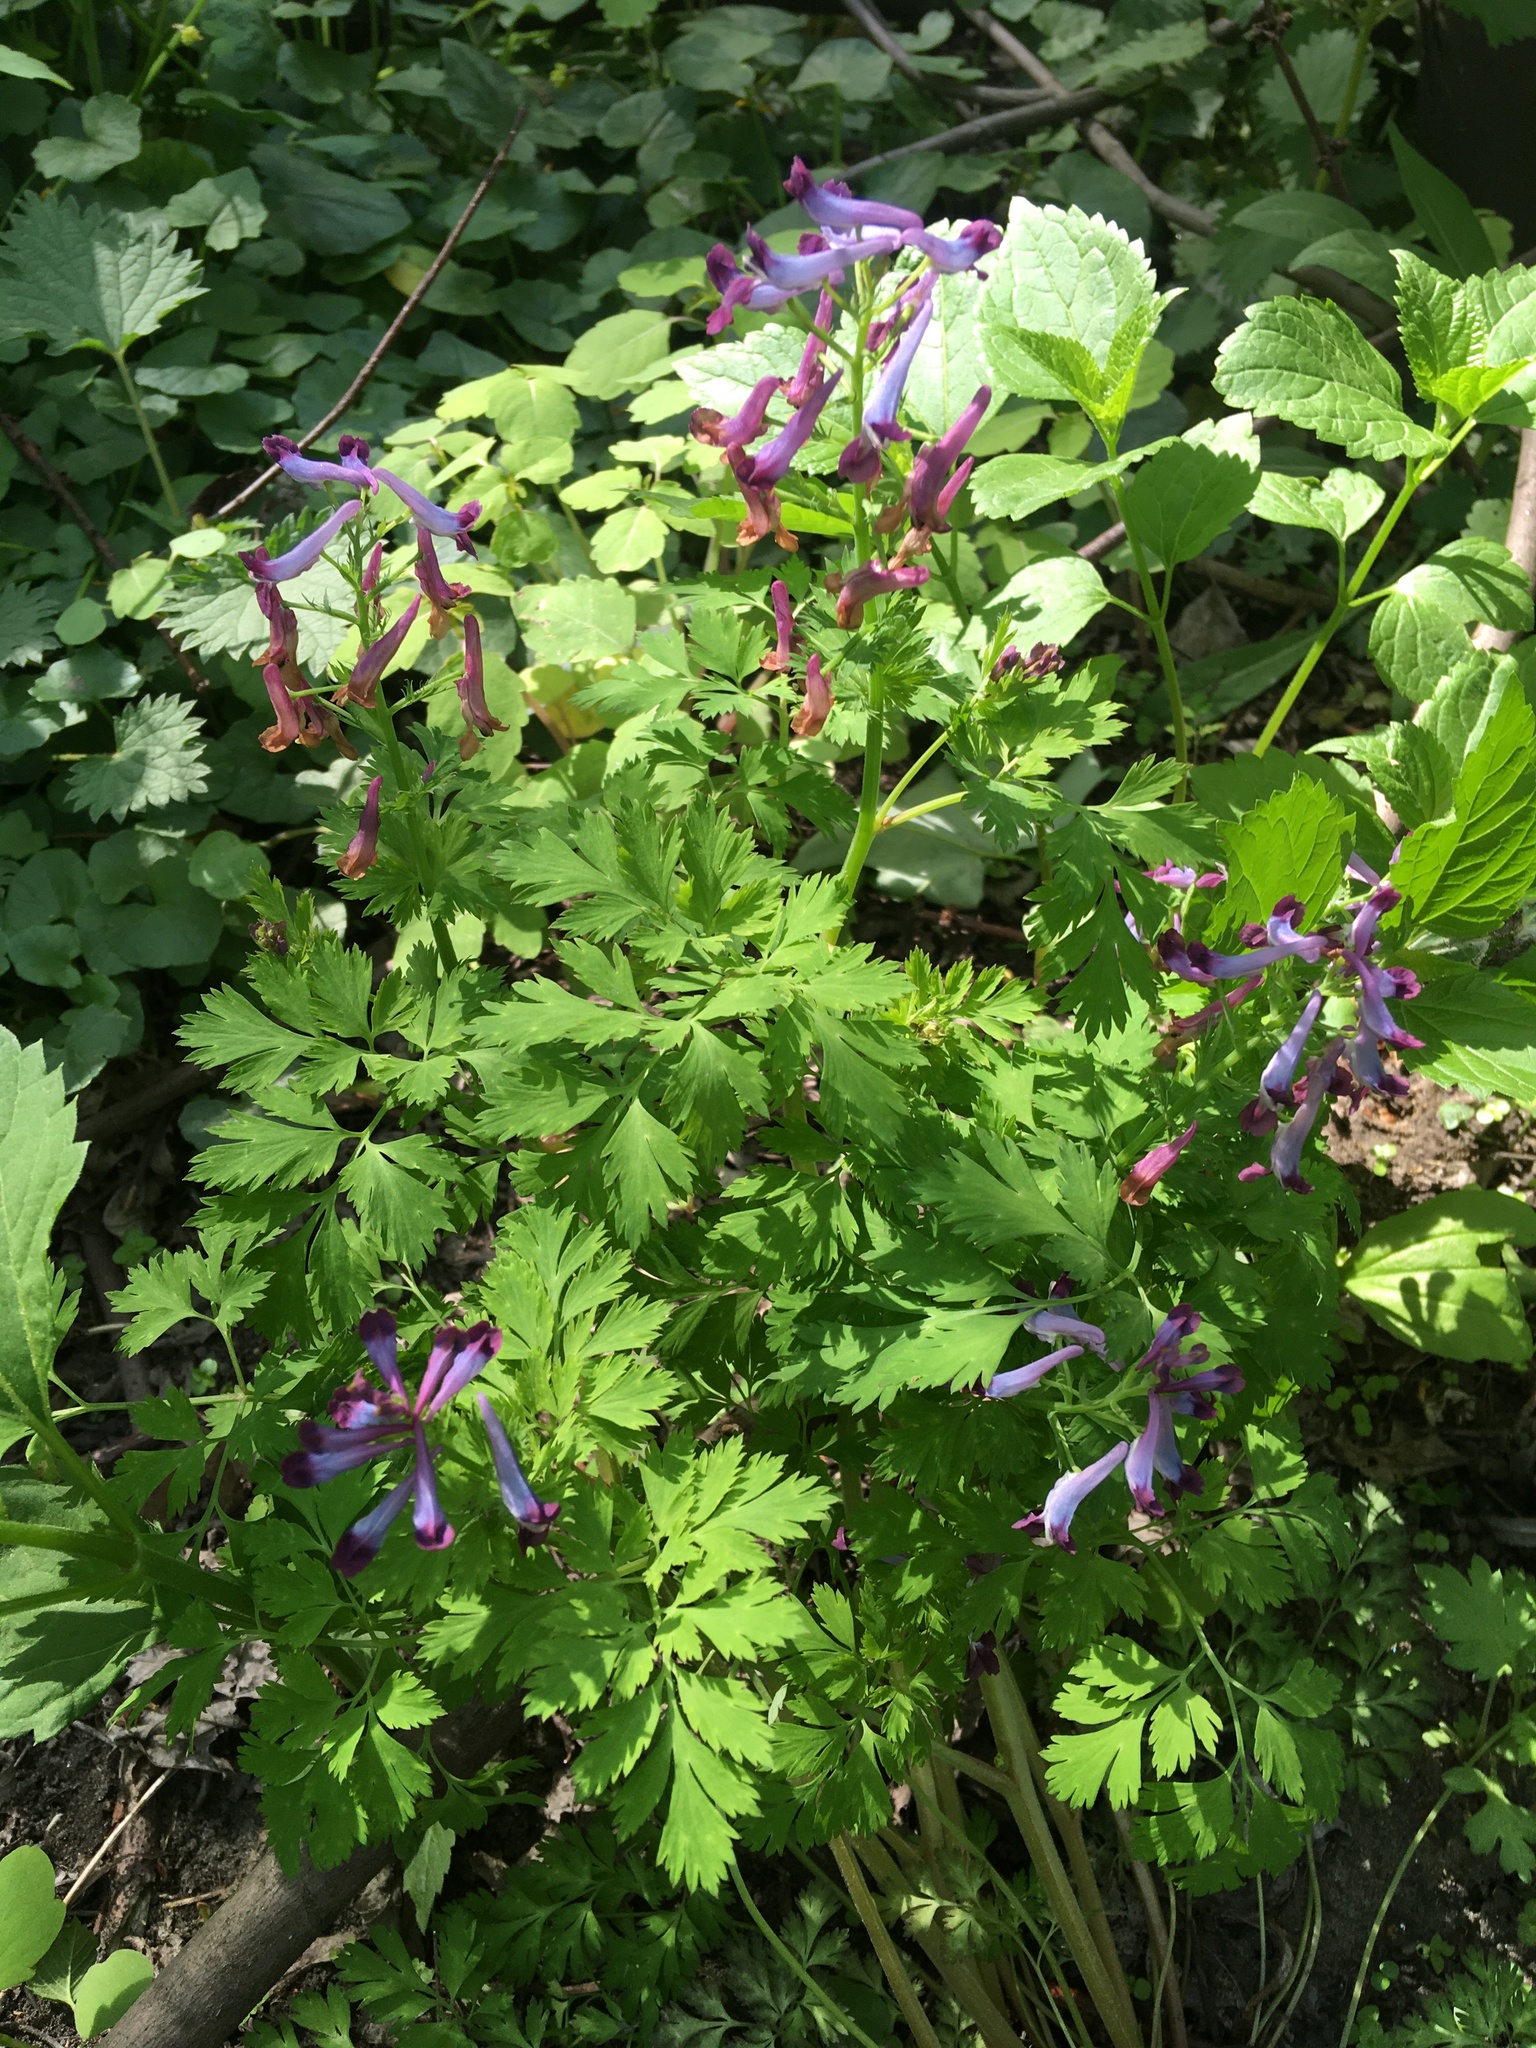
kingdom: Plantae
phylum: Tracheophyta
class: Magnoliopsida
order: Ranunculales
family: Papaveraceae
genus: Corydalis
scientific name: Corydalis incisa
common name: Incised fumewort
